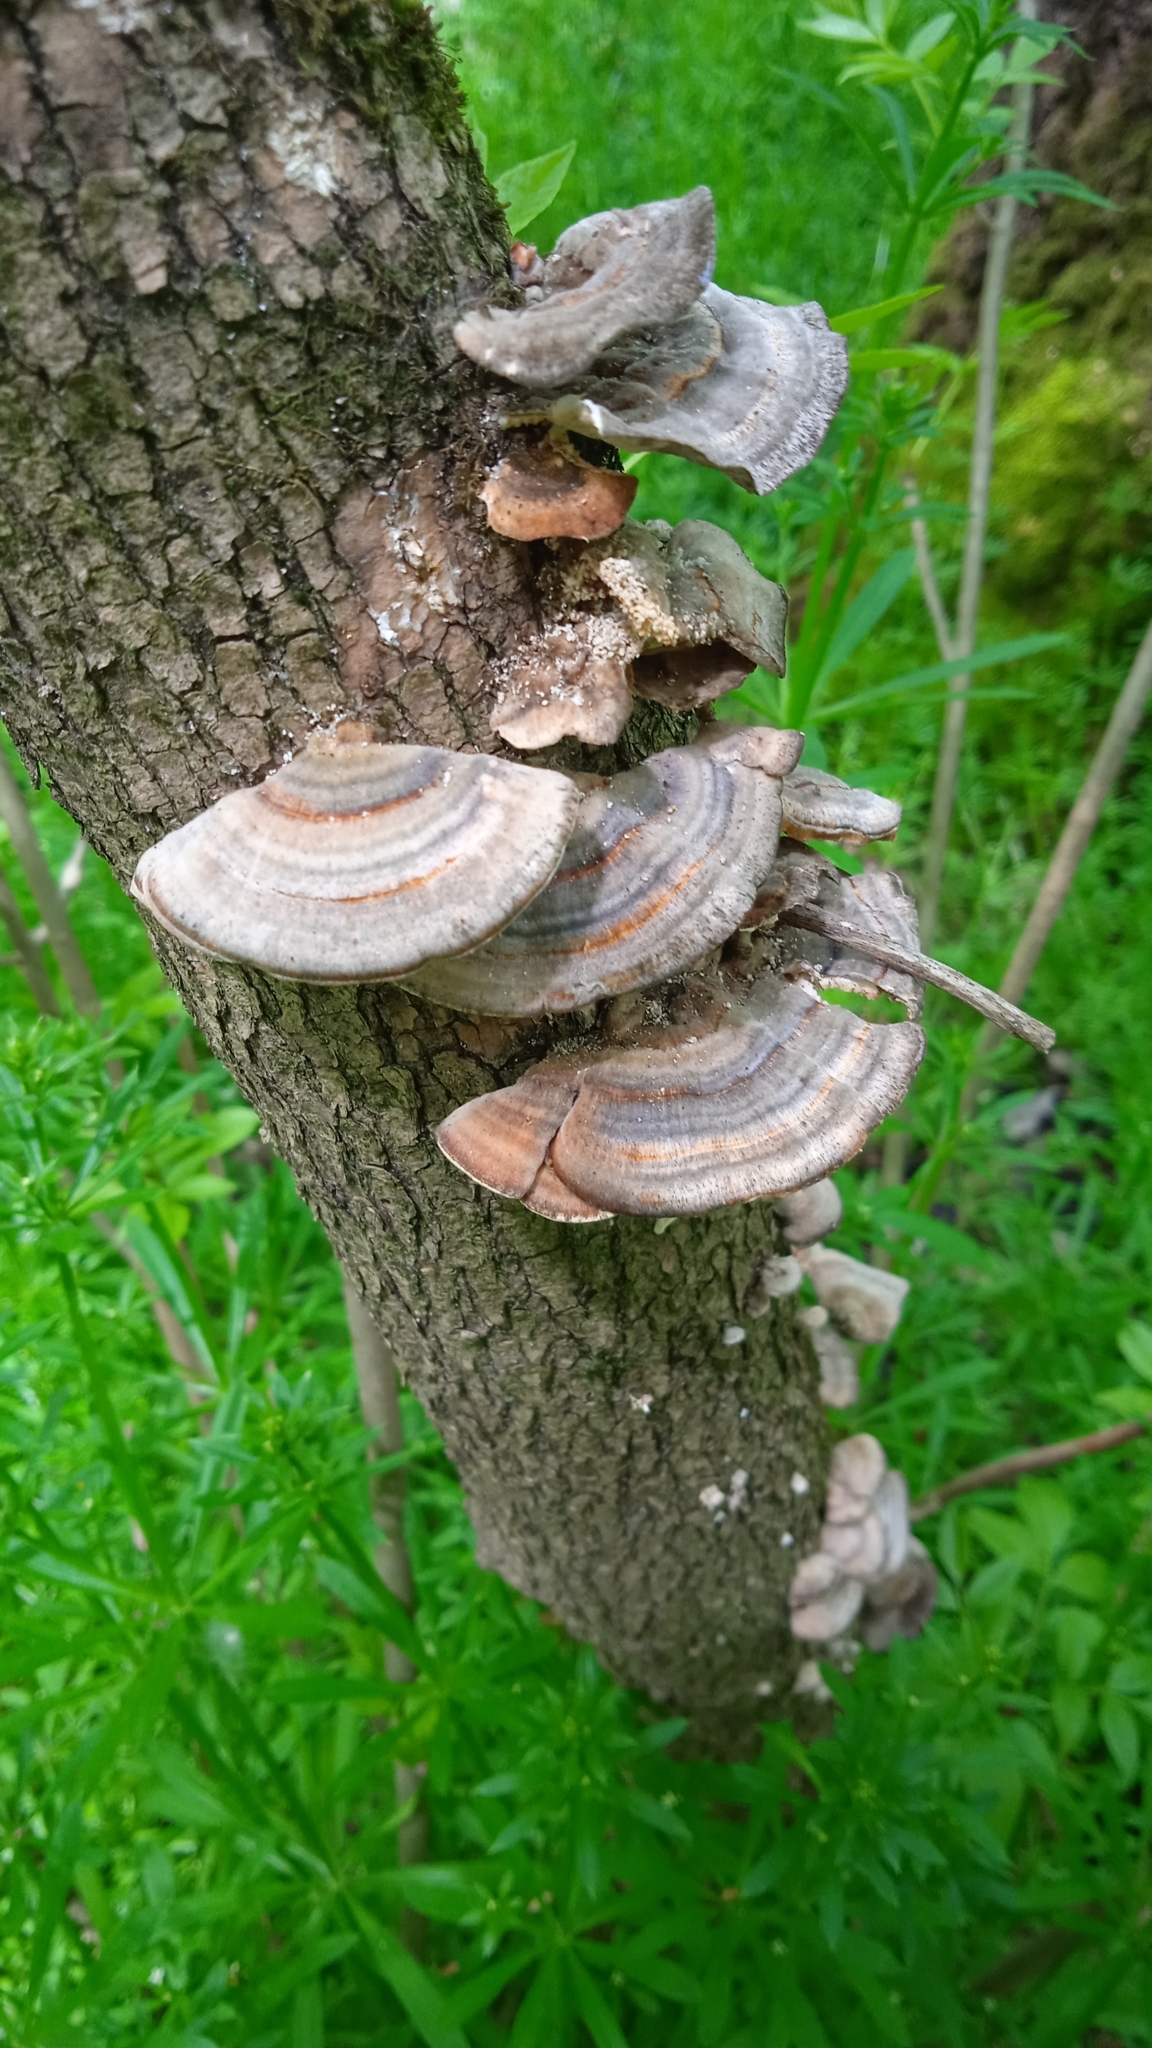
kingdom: Fungi
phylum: Basidiomycota
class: Agaricomycetes
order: Polyporales
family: Polyporaceae
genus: Trametes
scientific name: Trametes versicolor
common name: Turkeytail
